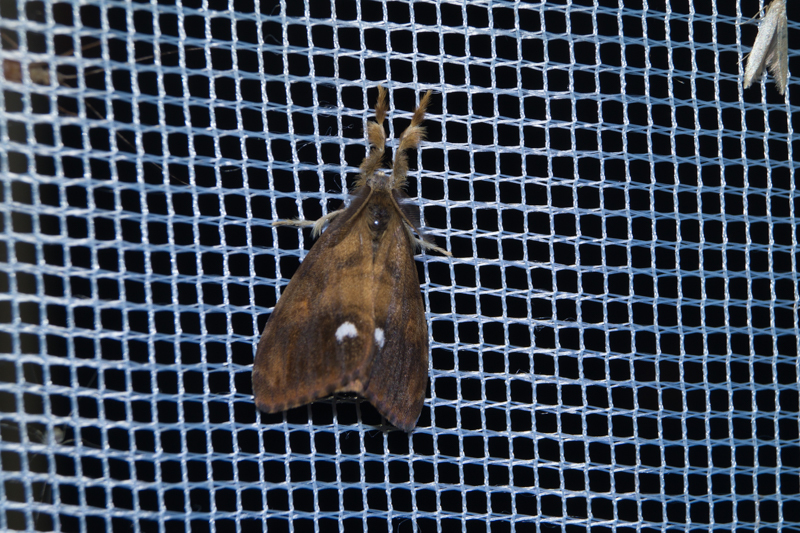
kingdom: Animalia
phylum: Arthropoda
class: Insecta
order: Lepidoptera
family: Erebidae
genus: Orgyia
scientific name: Orgyia antiqua
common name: Vapourer
